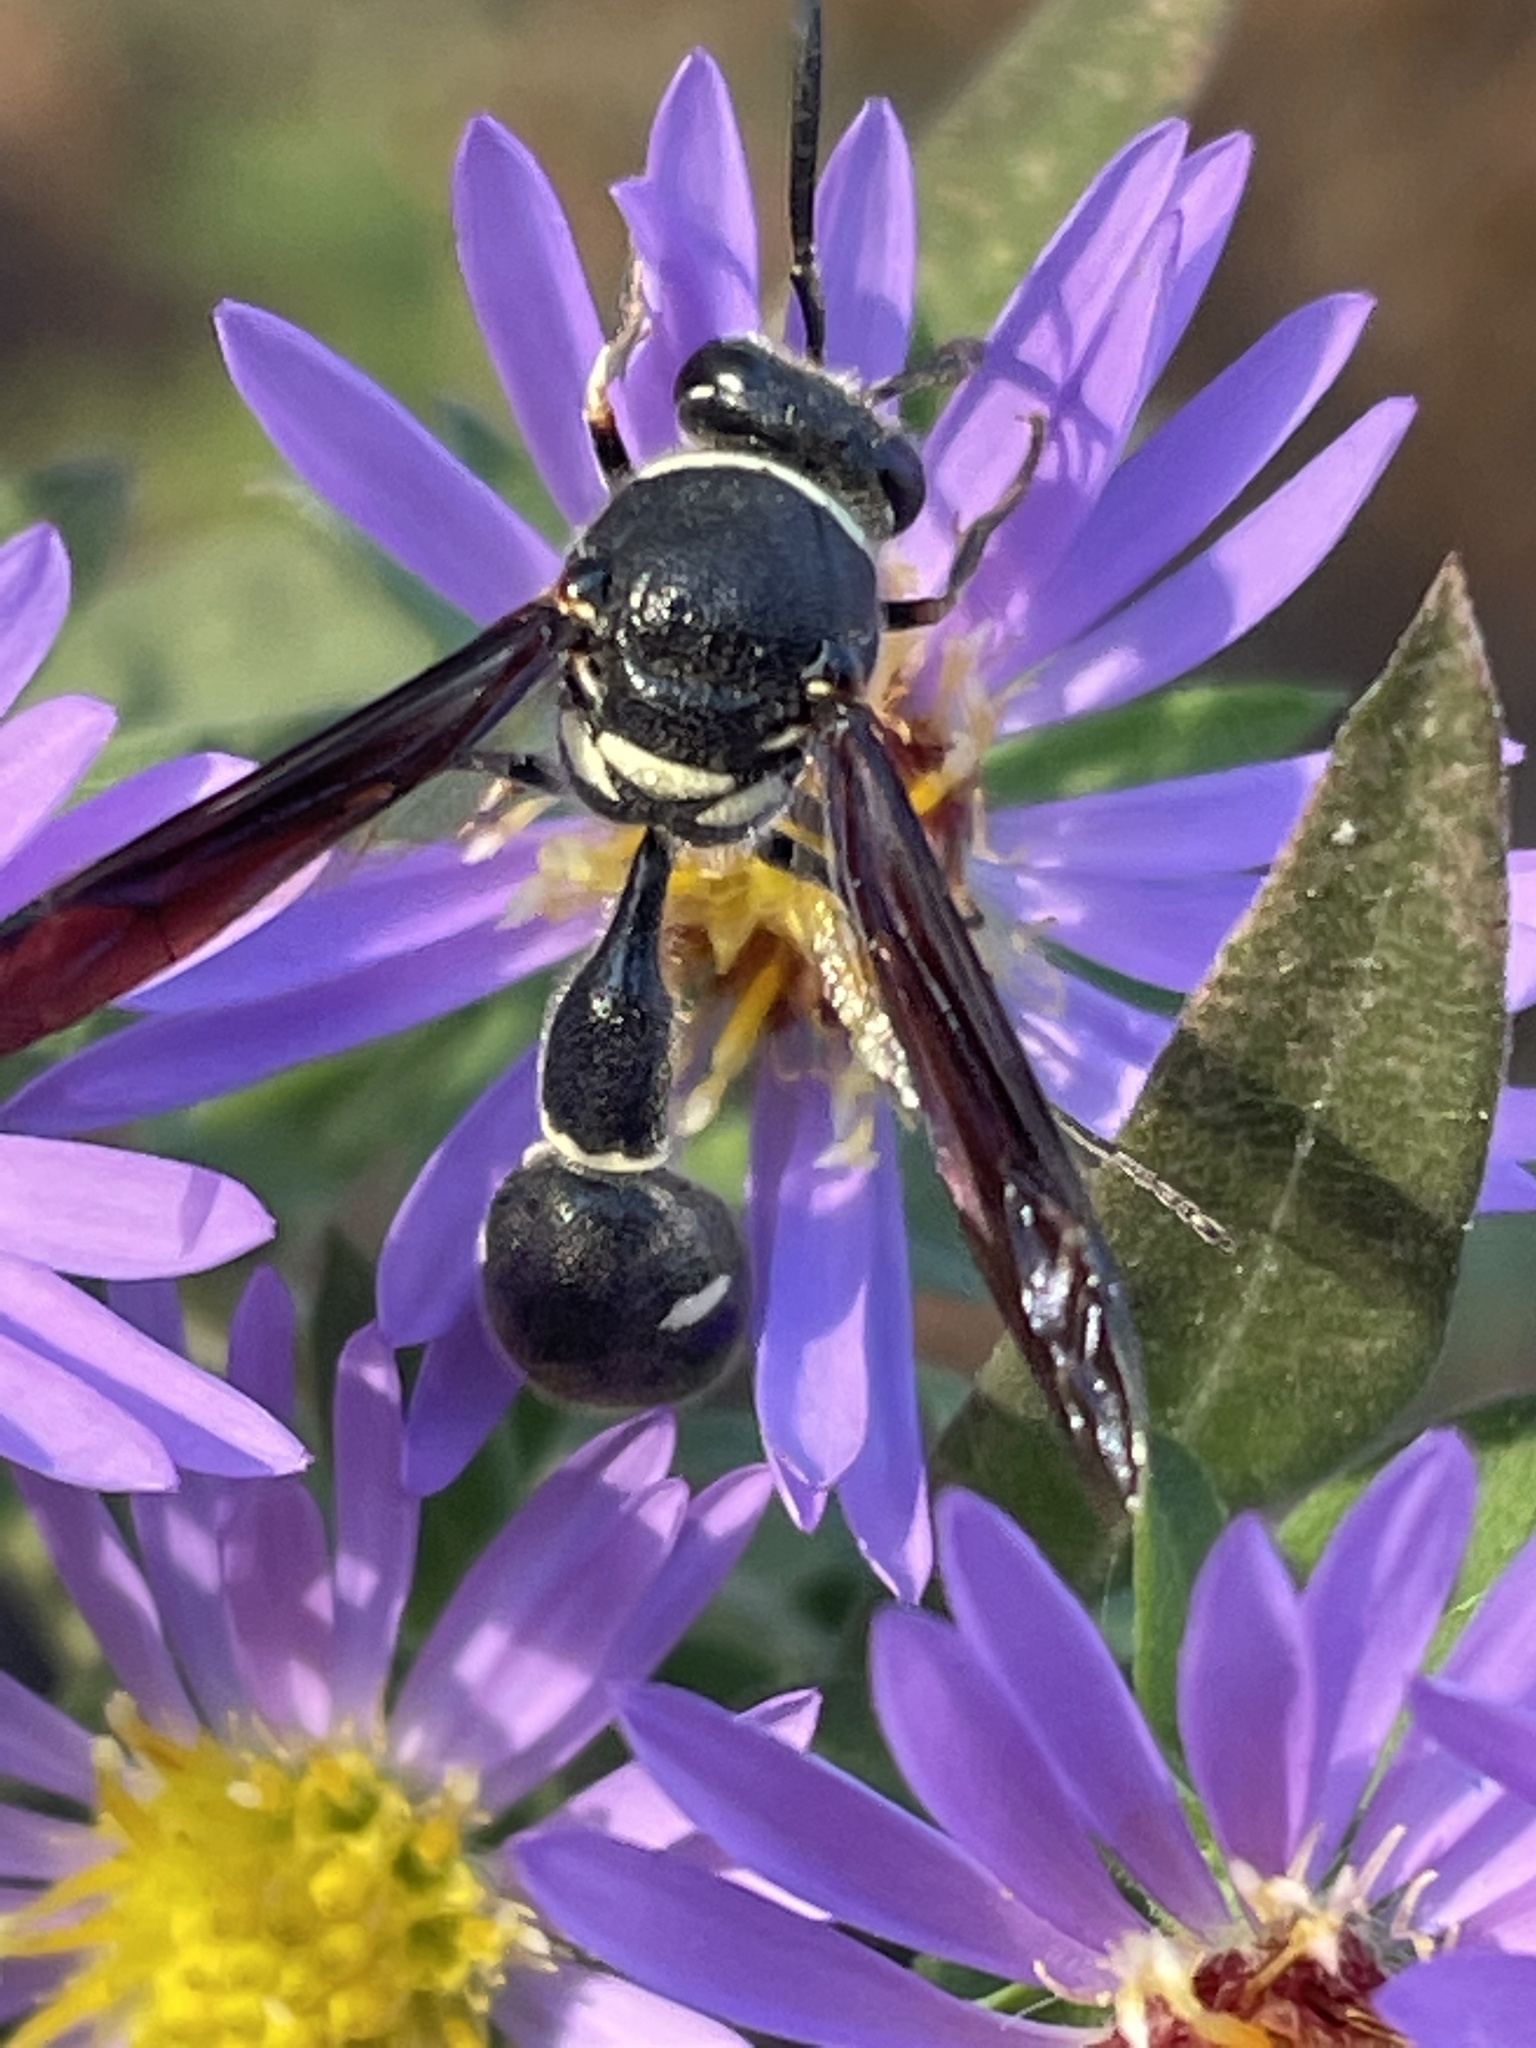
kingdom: Animalia
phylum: Arthropoda
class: Insecta
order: Hymenoptera
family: Vespidae
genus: Eumenes
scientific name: Eumenes fraternus
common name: Fraternal potter wasp
